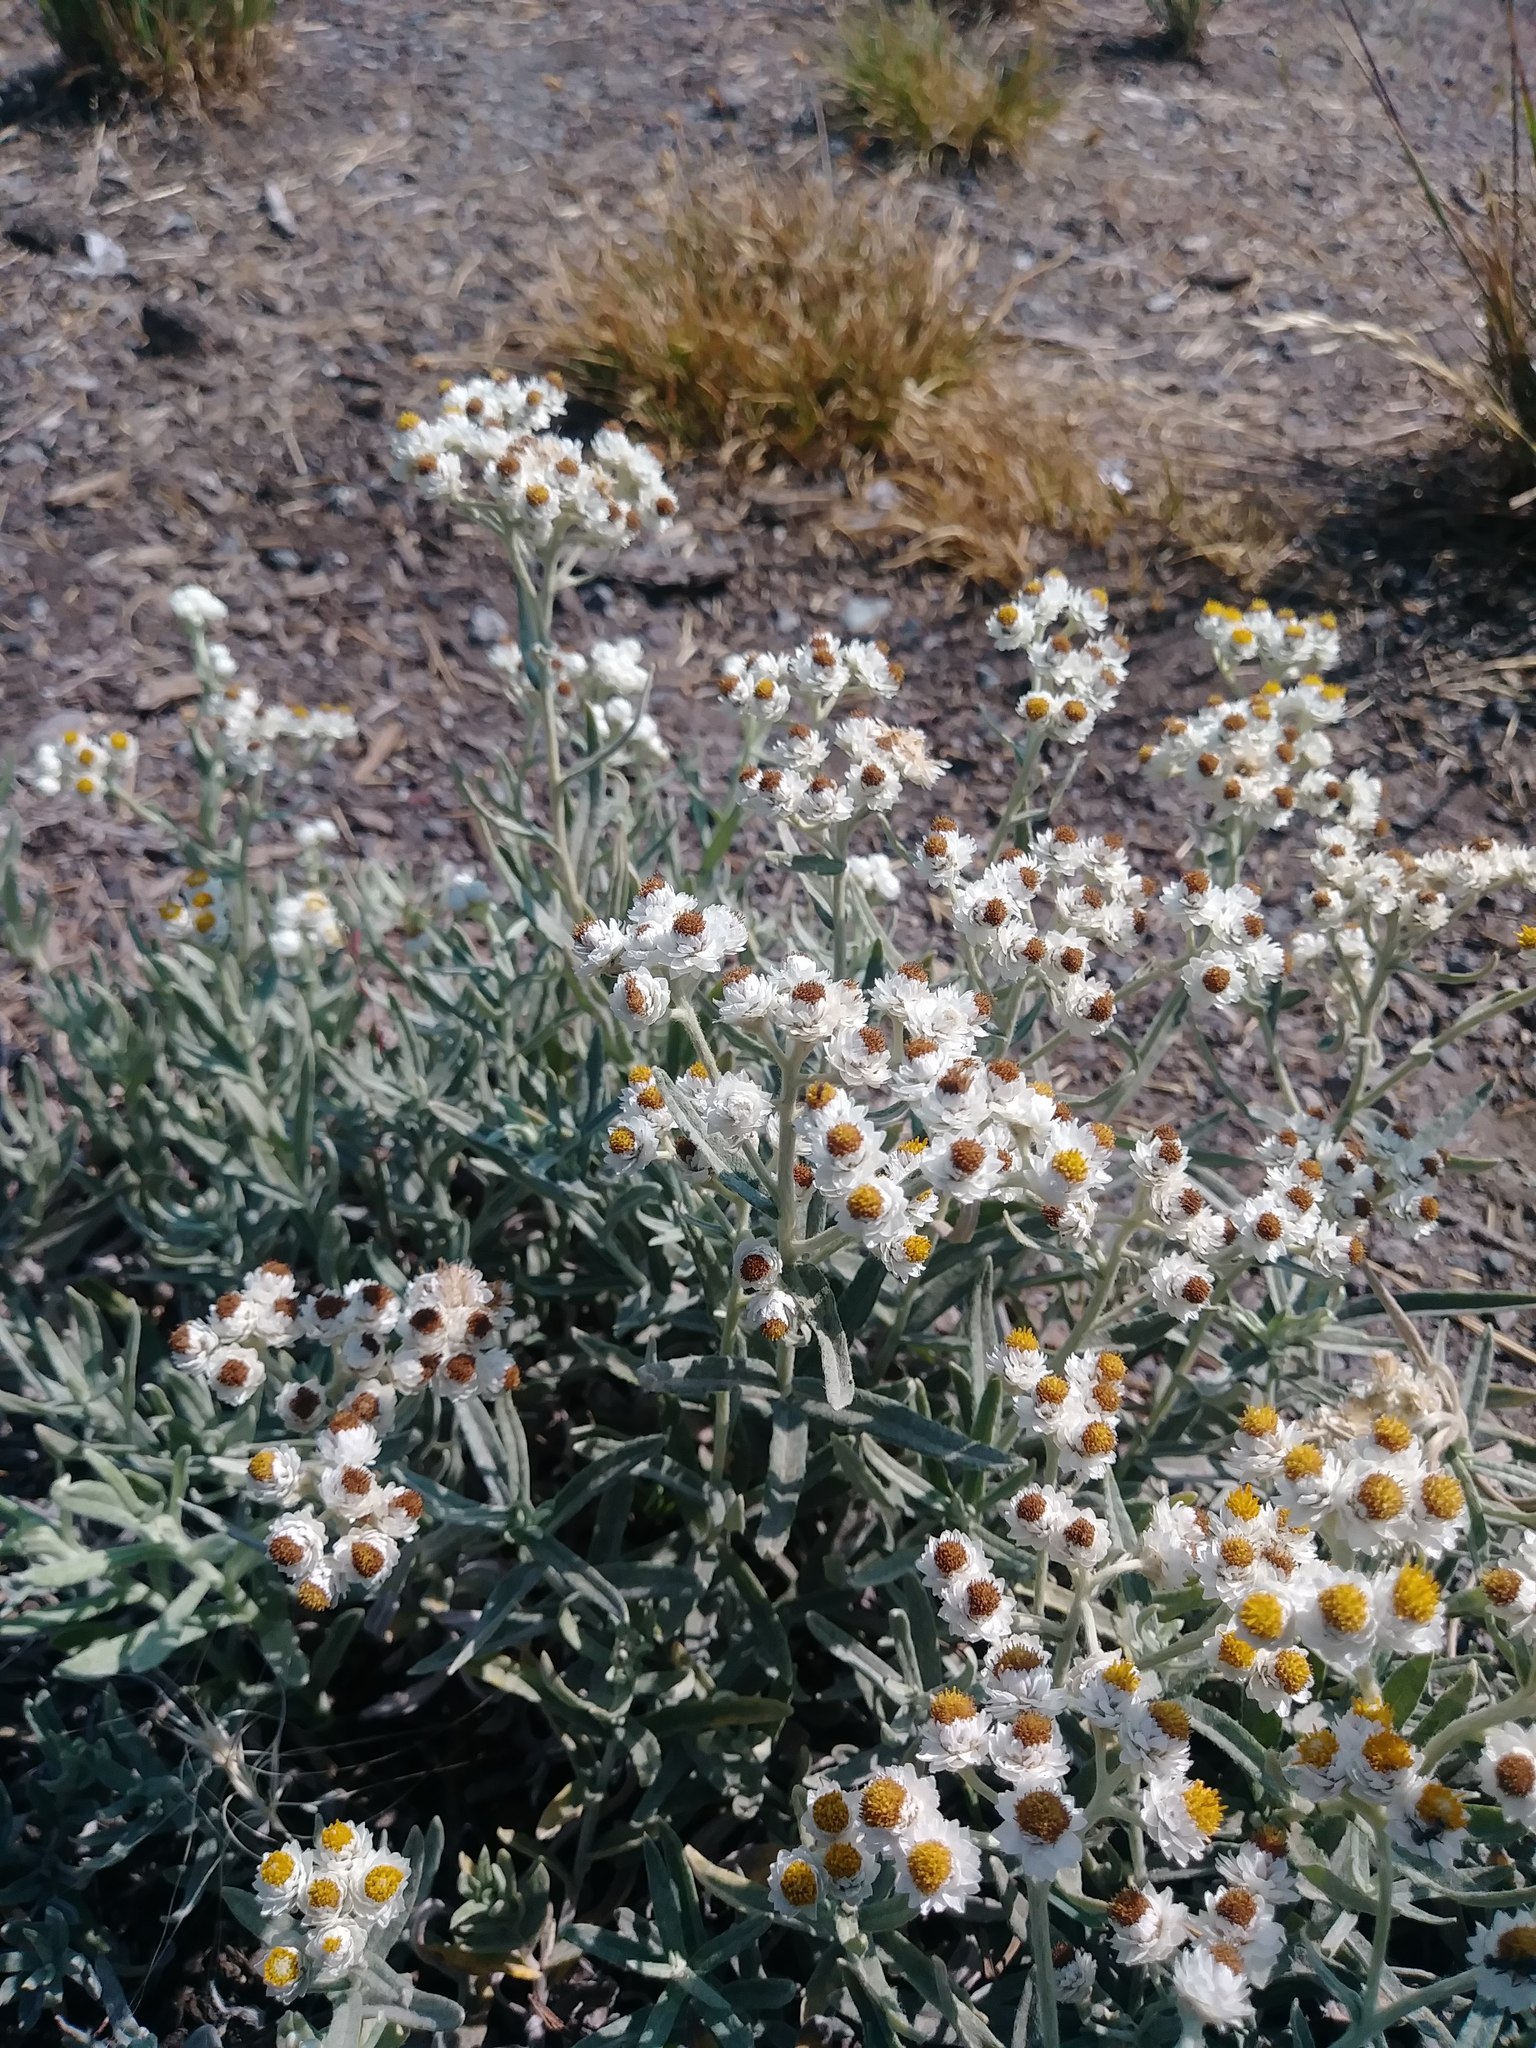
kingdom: Plantae
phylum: Tracheophyta
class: Magnoliopsida
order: Asterales
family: Asteraceae
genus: Anaphalis
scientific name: Anaphalis margaritacea
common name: Pearly everlasting
